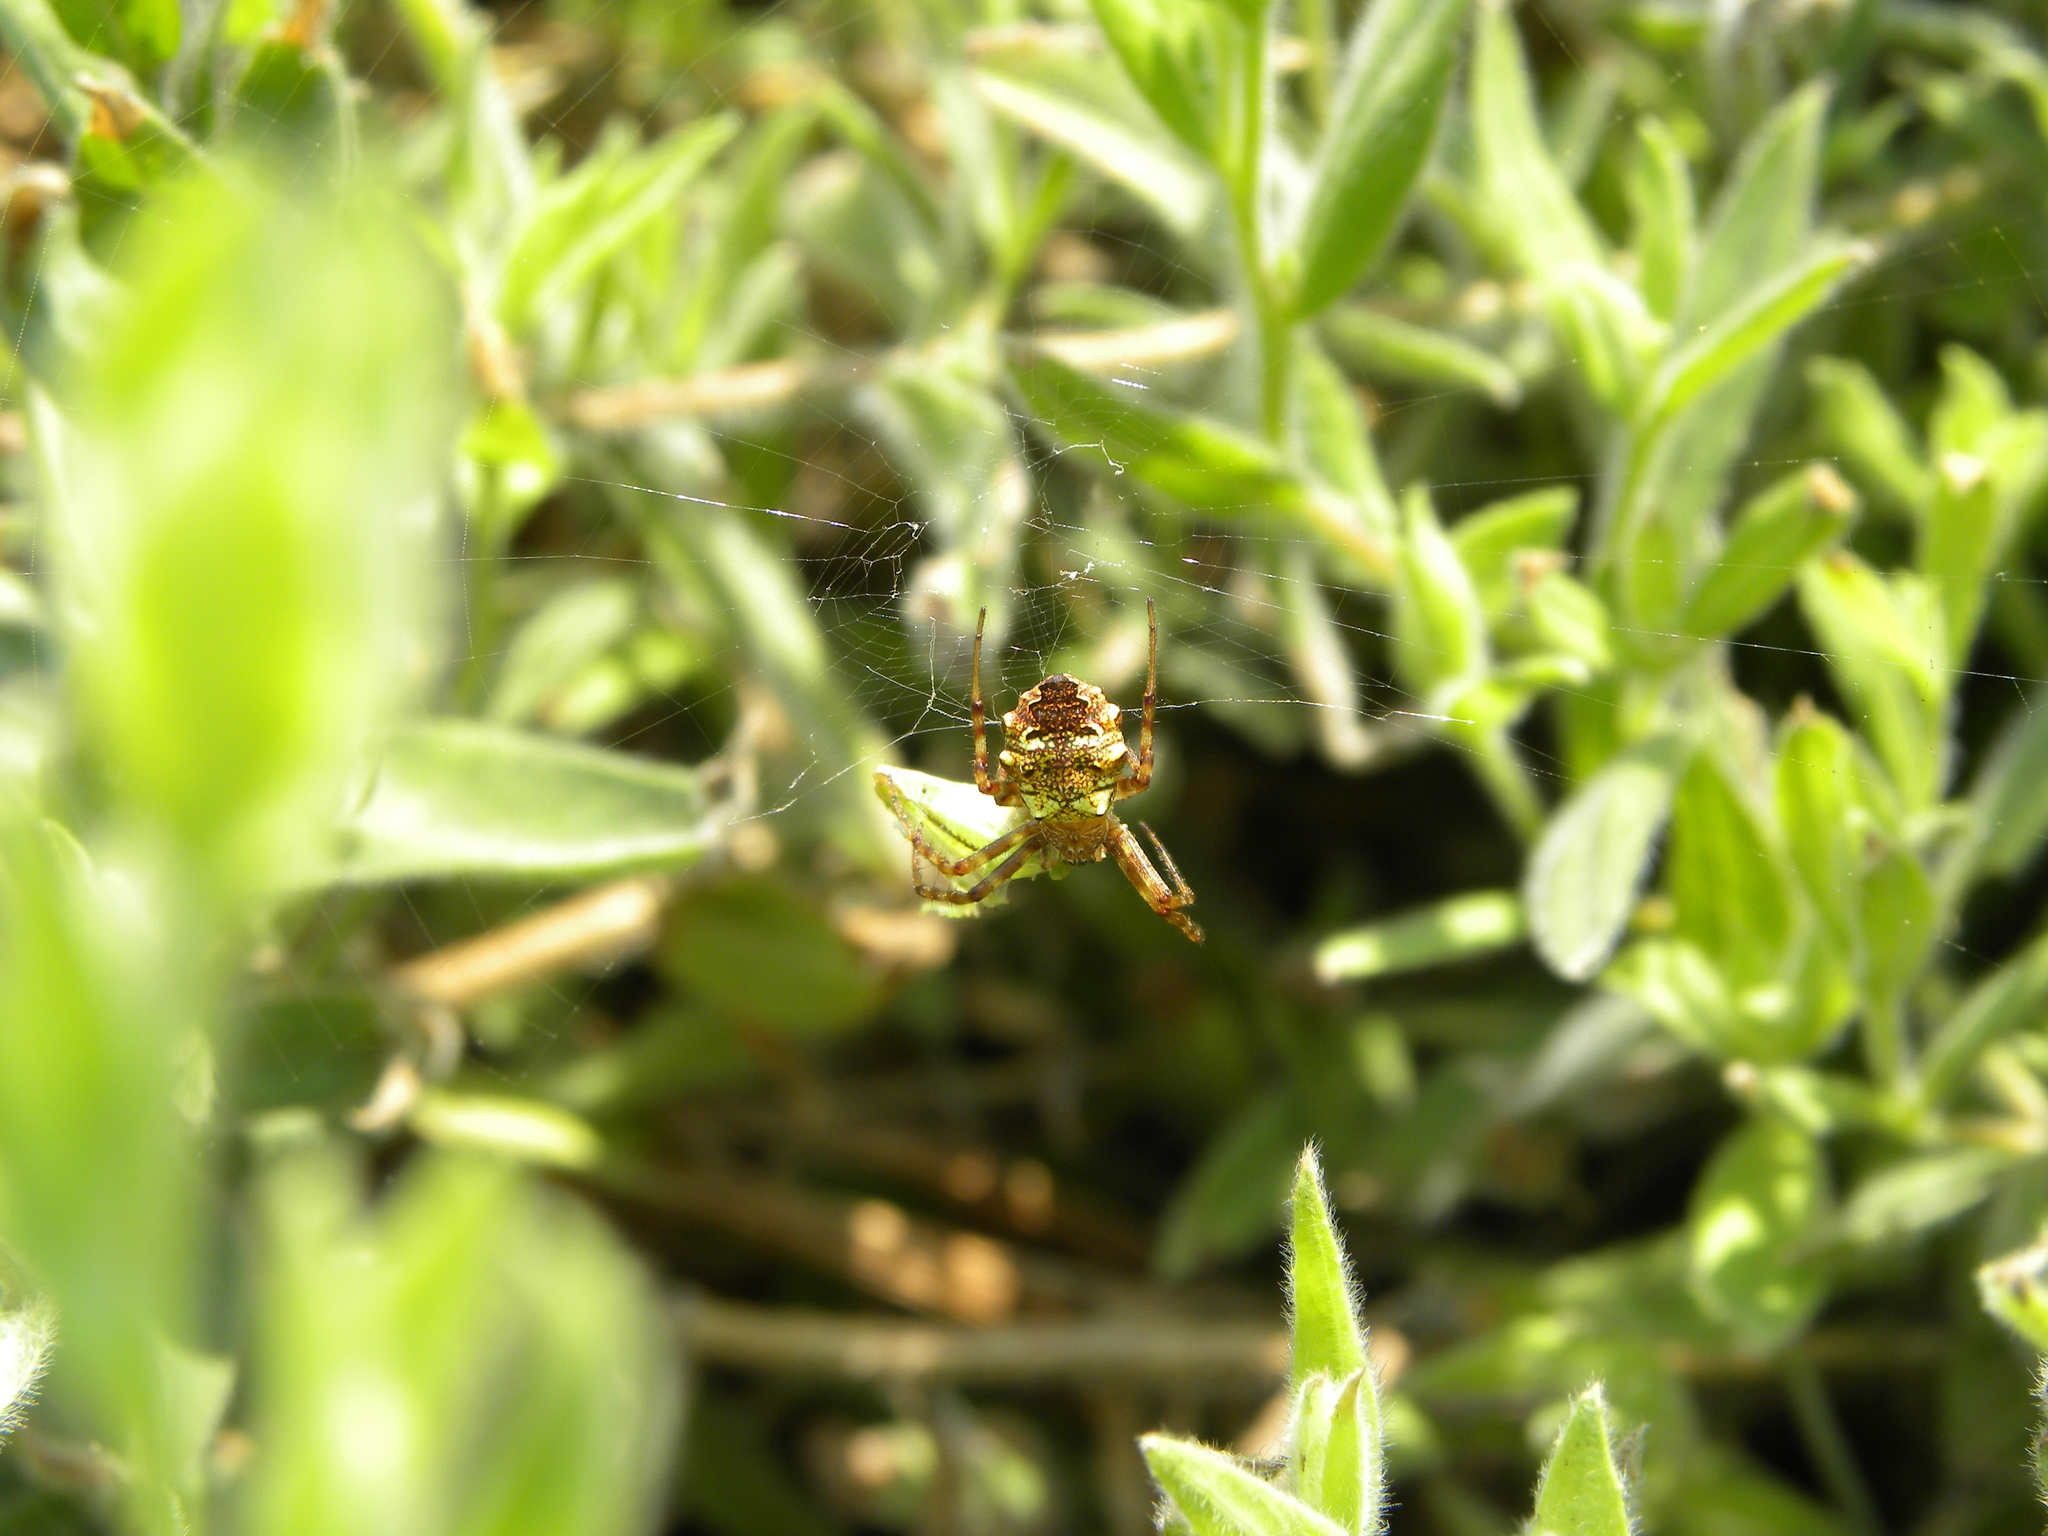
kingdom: Animalia
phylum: Arthropoda
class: Arachnida
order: Araneae
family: Araneidae
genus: Gea
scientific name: Gea heptagon
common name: Orb weavers
